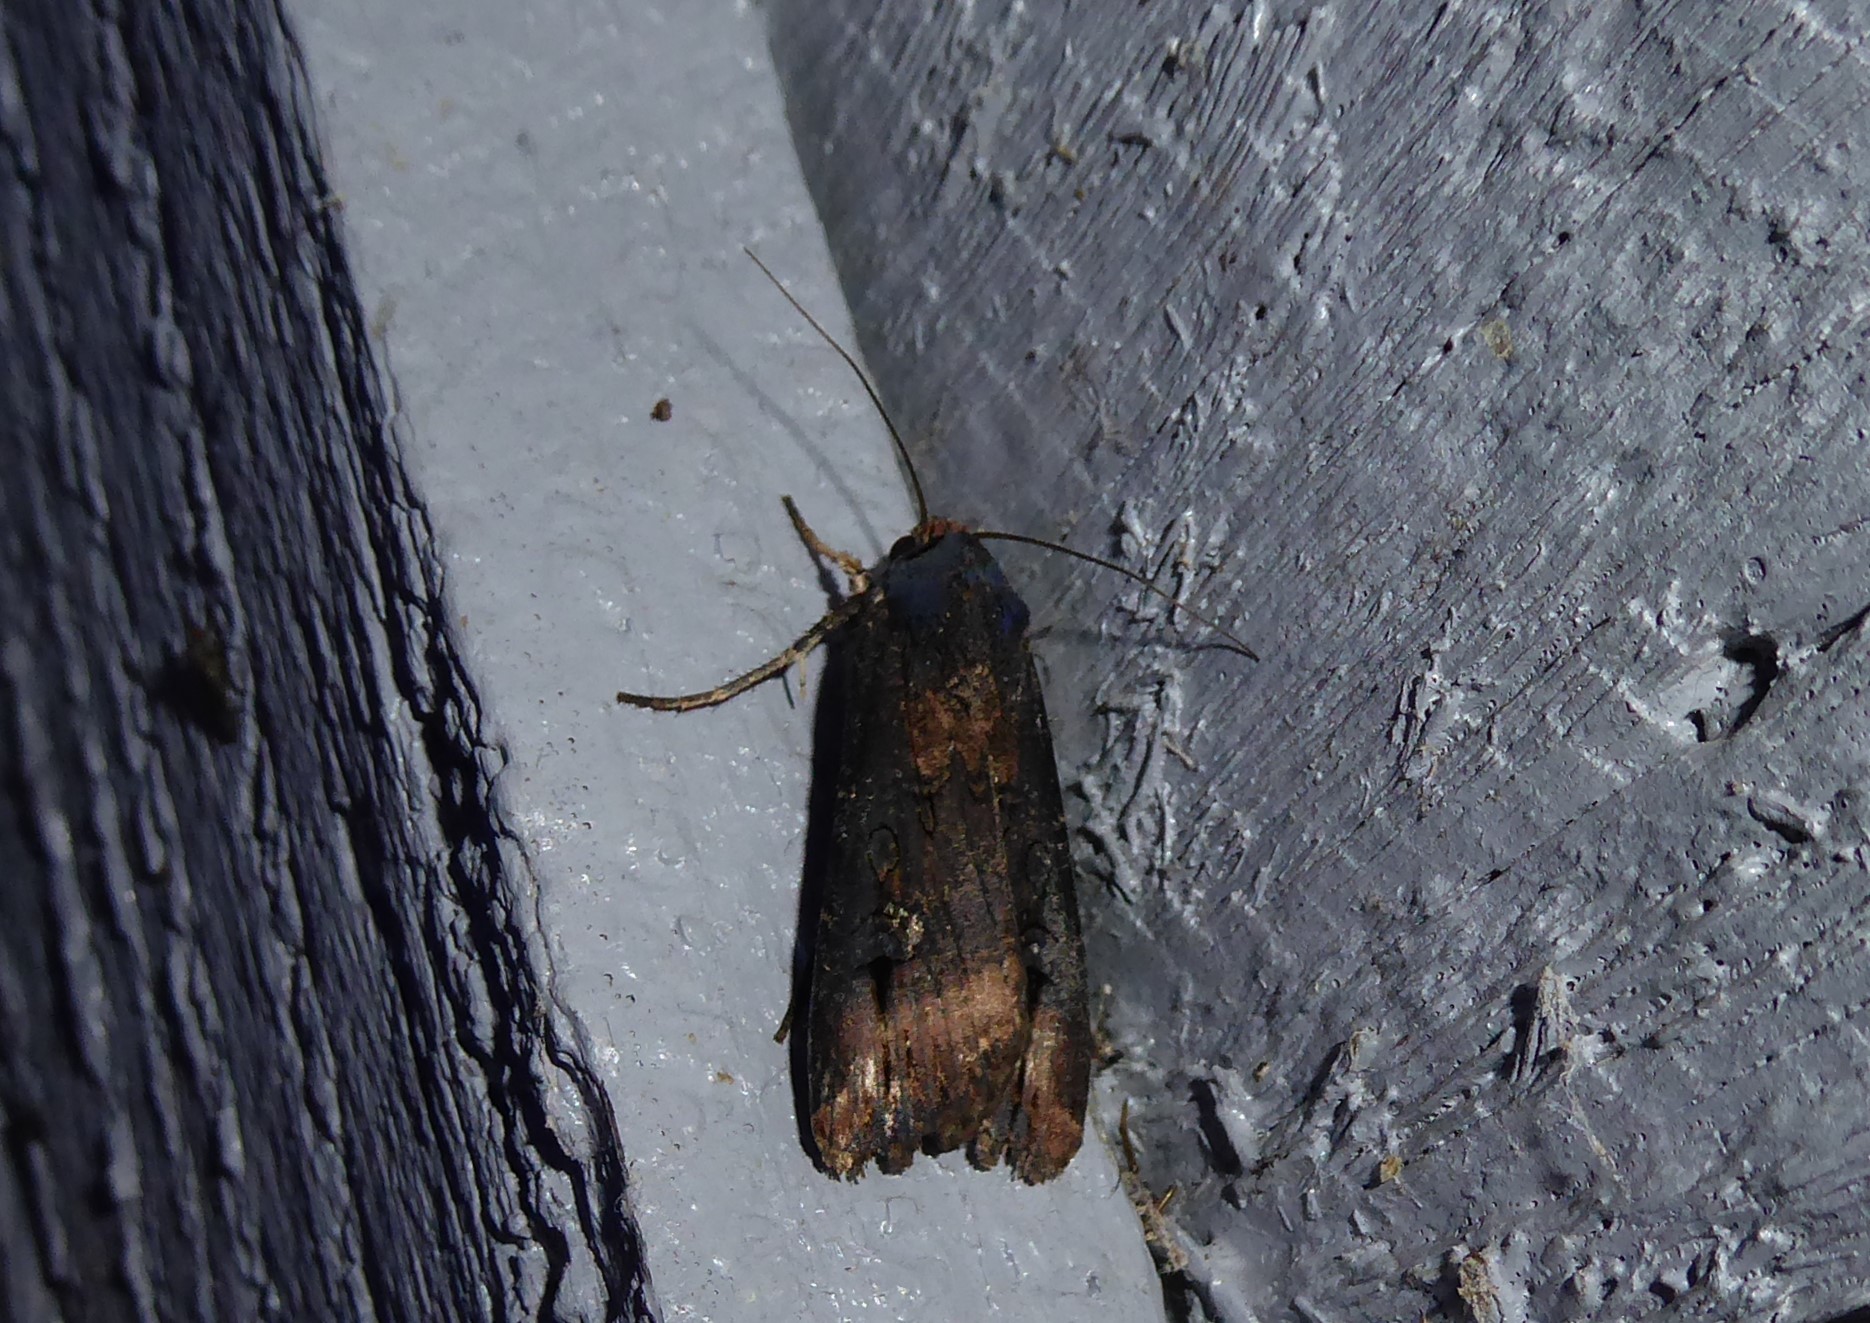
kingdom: Animalia
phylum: Arthropoda
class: Insecta
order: Lepidoptera
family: Noctuidae
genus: Agrotis
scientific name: Agrotis ipsilon
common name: Dark sword-grass
